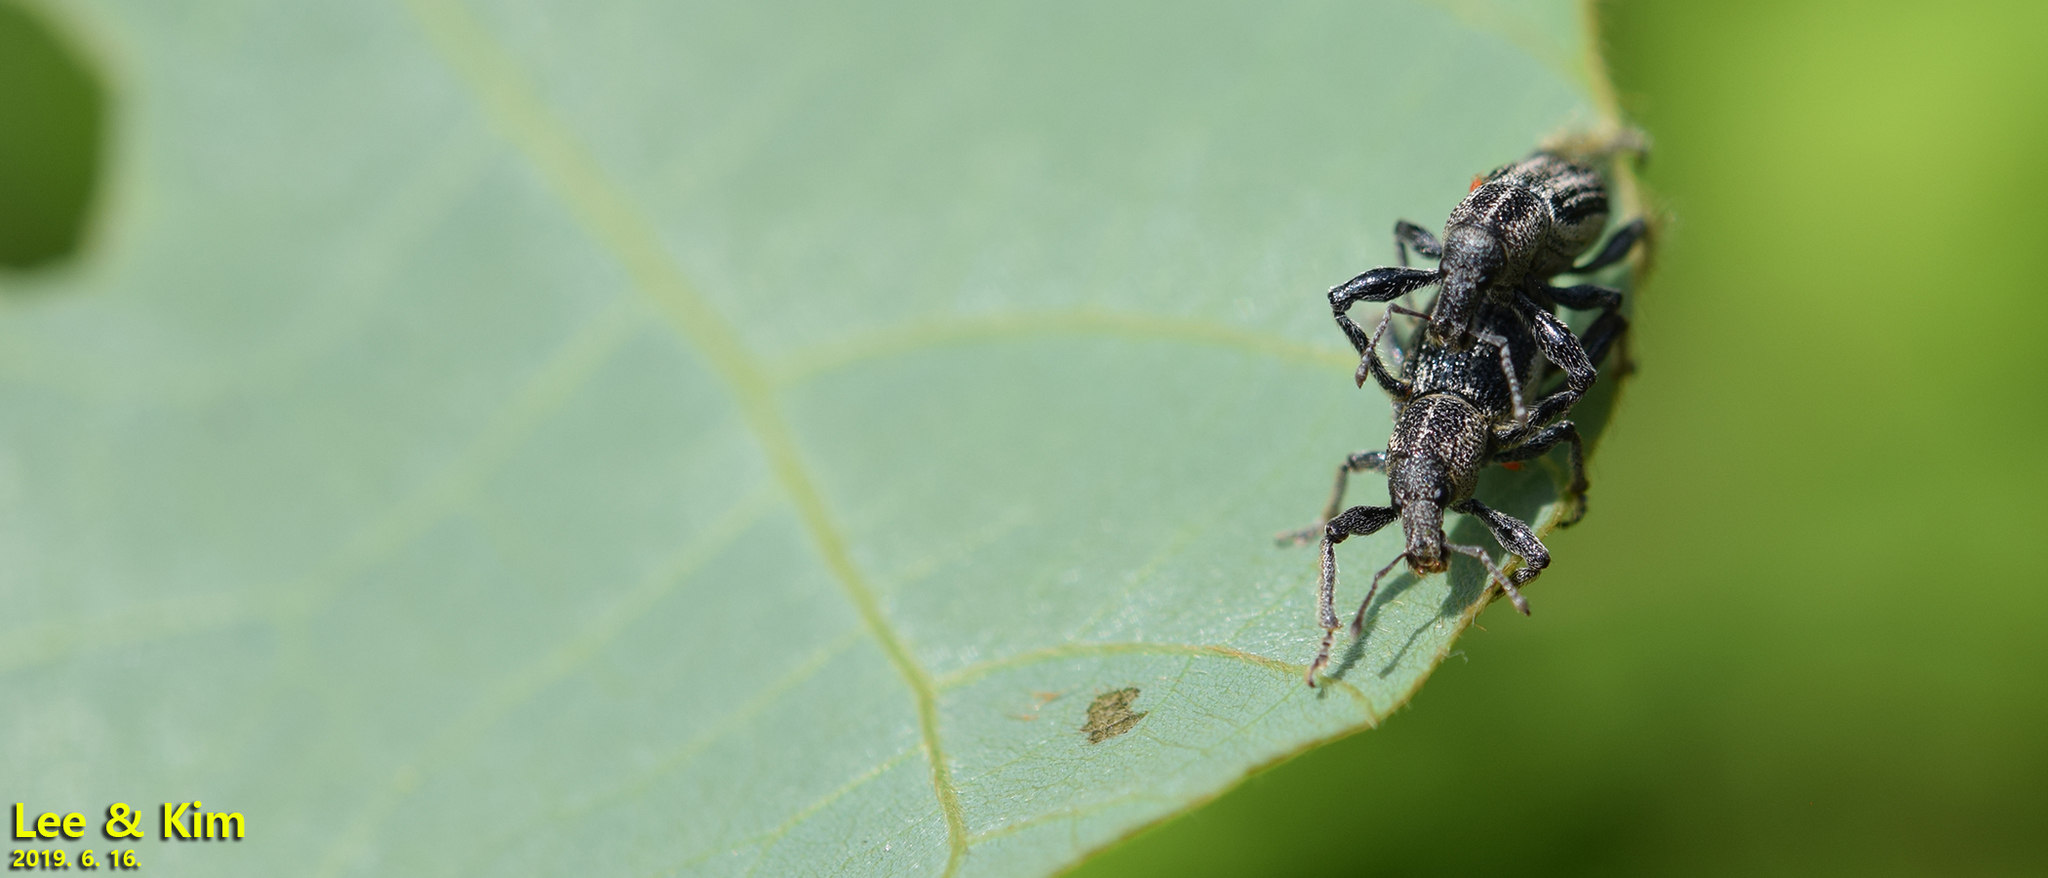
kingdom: Animalia
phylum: Arthropoda
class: Insecta
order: Coleoptera
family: Curculionidae
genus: Enaptorhinus
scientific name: Enaptorhinus granulatus
